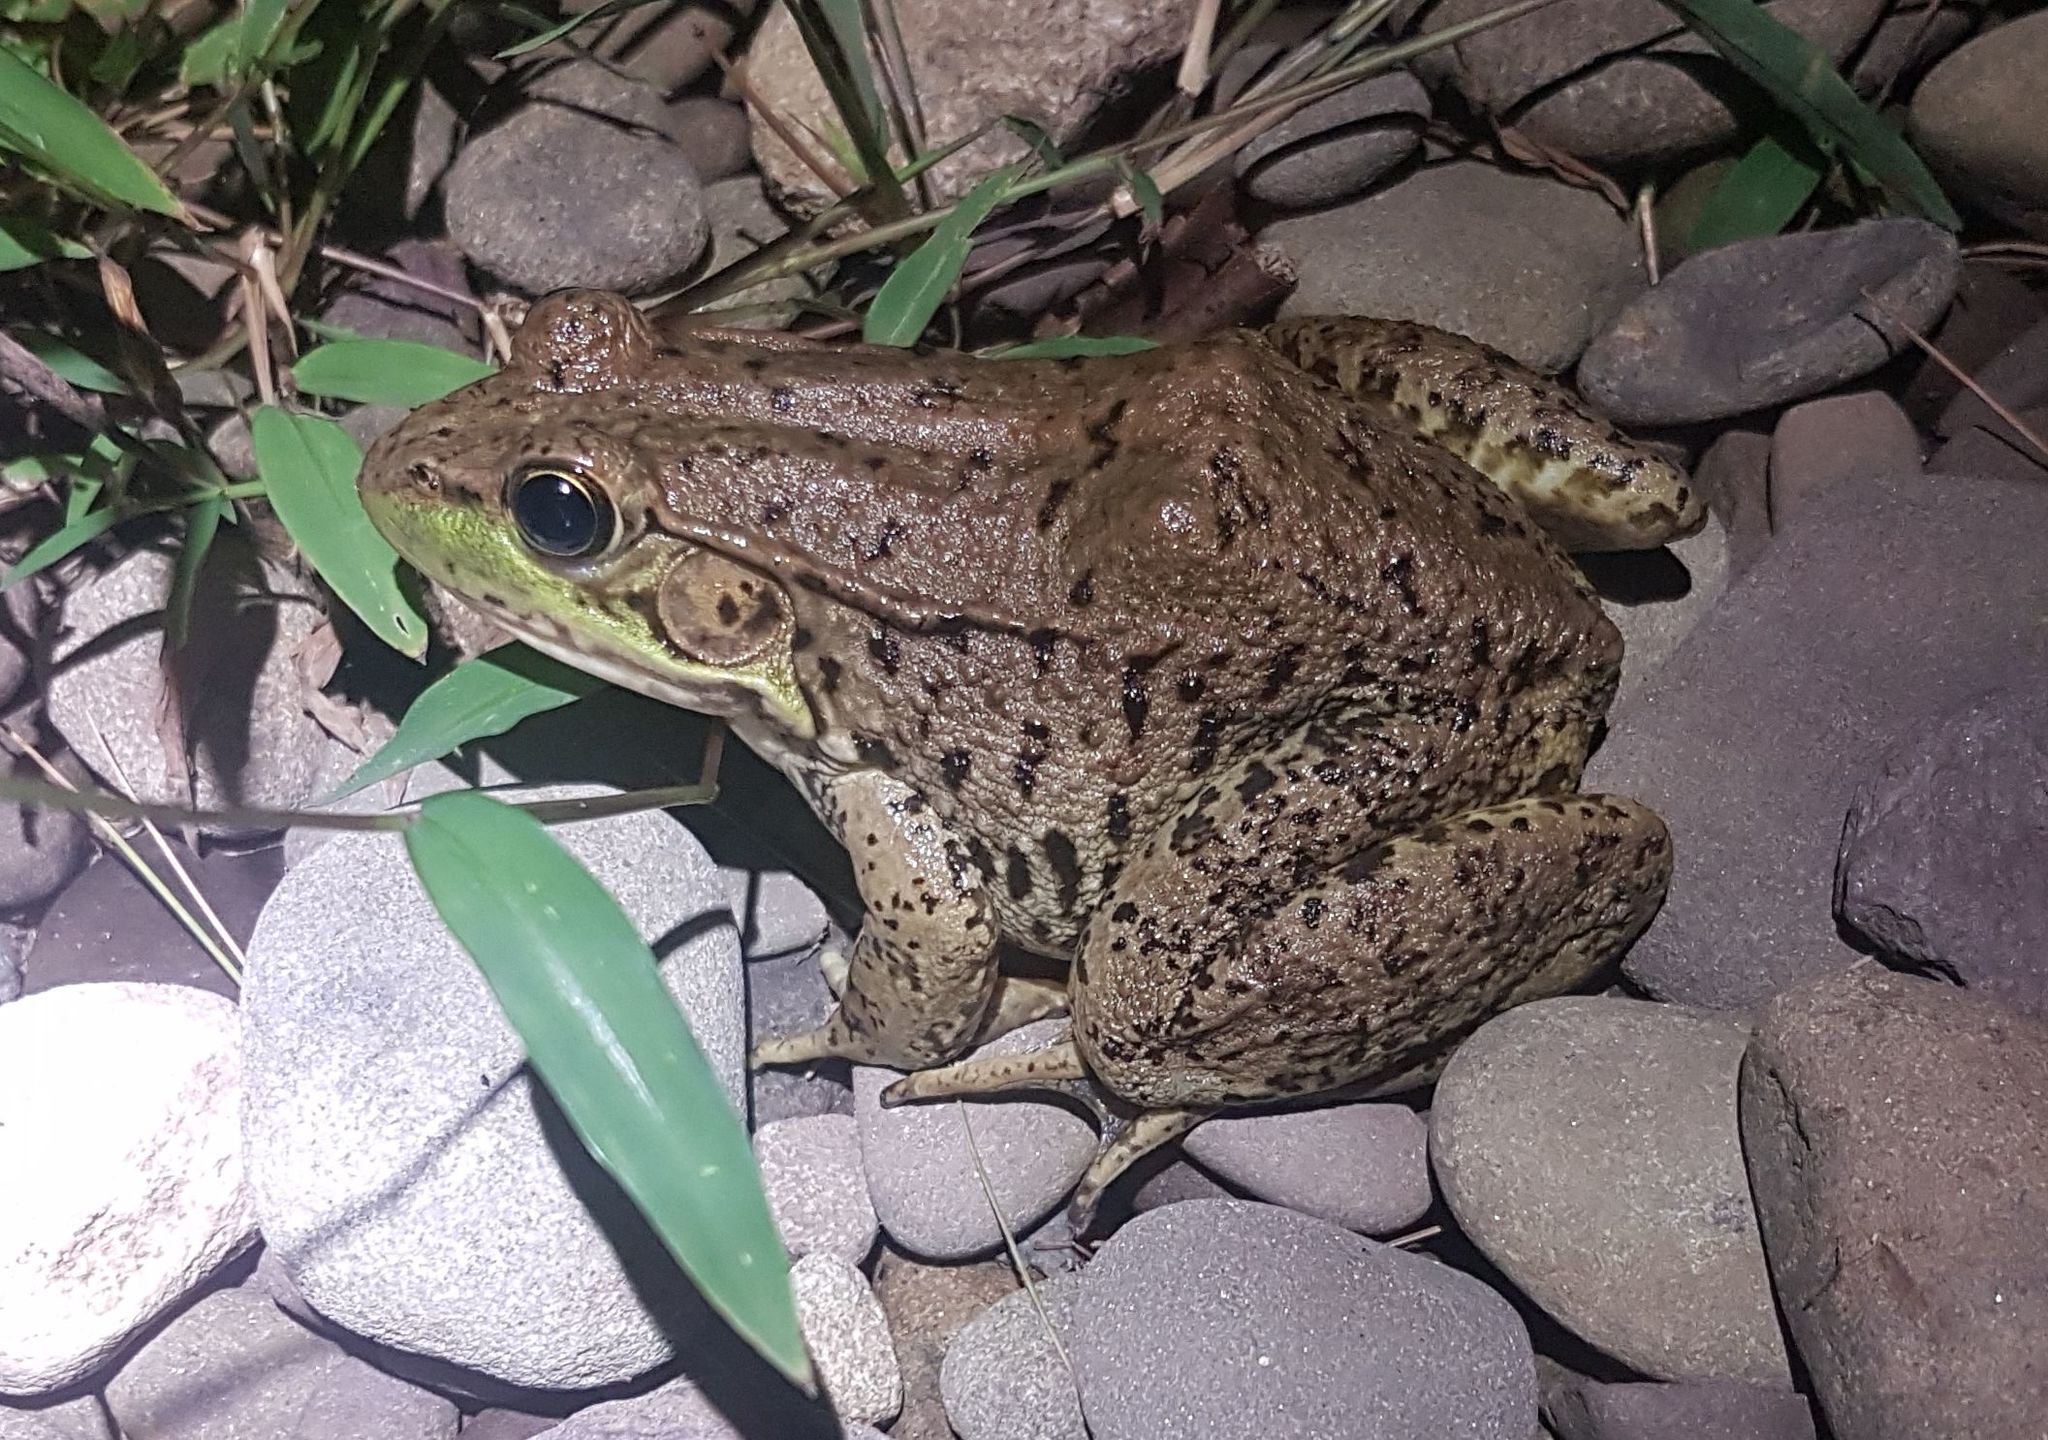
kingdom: Animalia
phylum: Chordata
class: Amphibia
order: Anura
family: Ranidae
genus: Lithobates
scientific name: Lithobates clamitans
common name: Green frog
